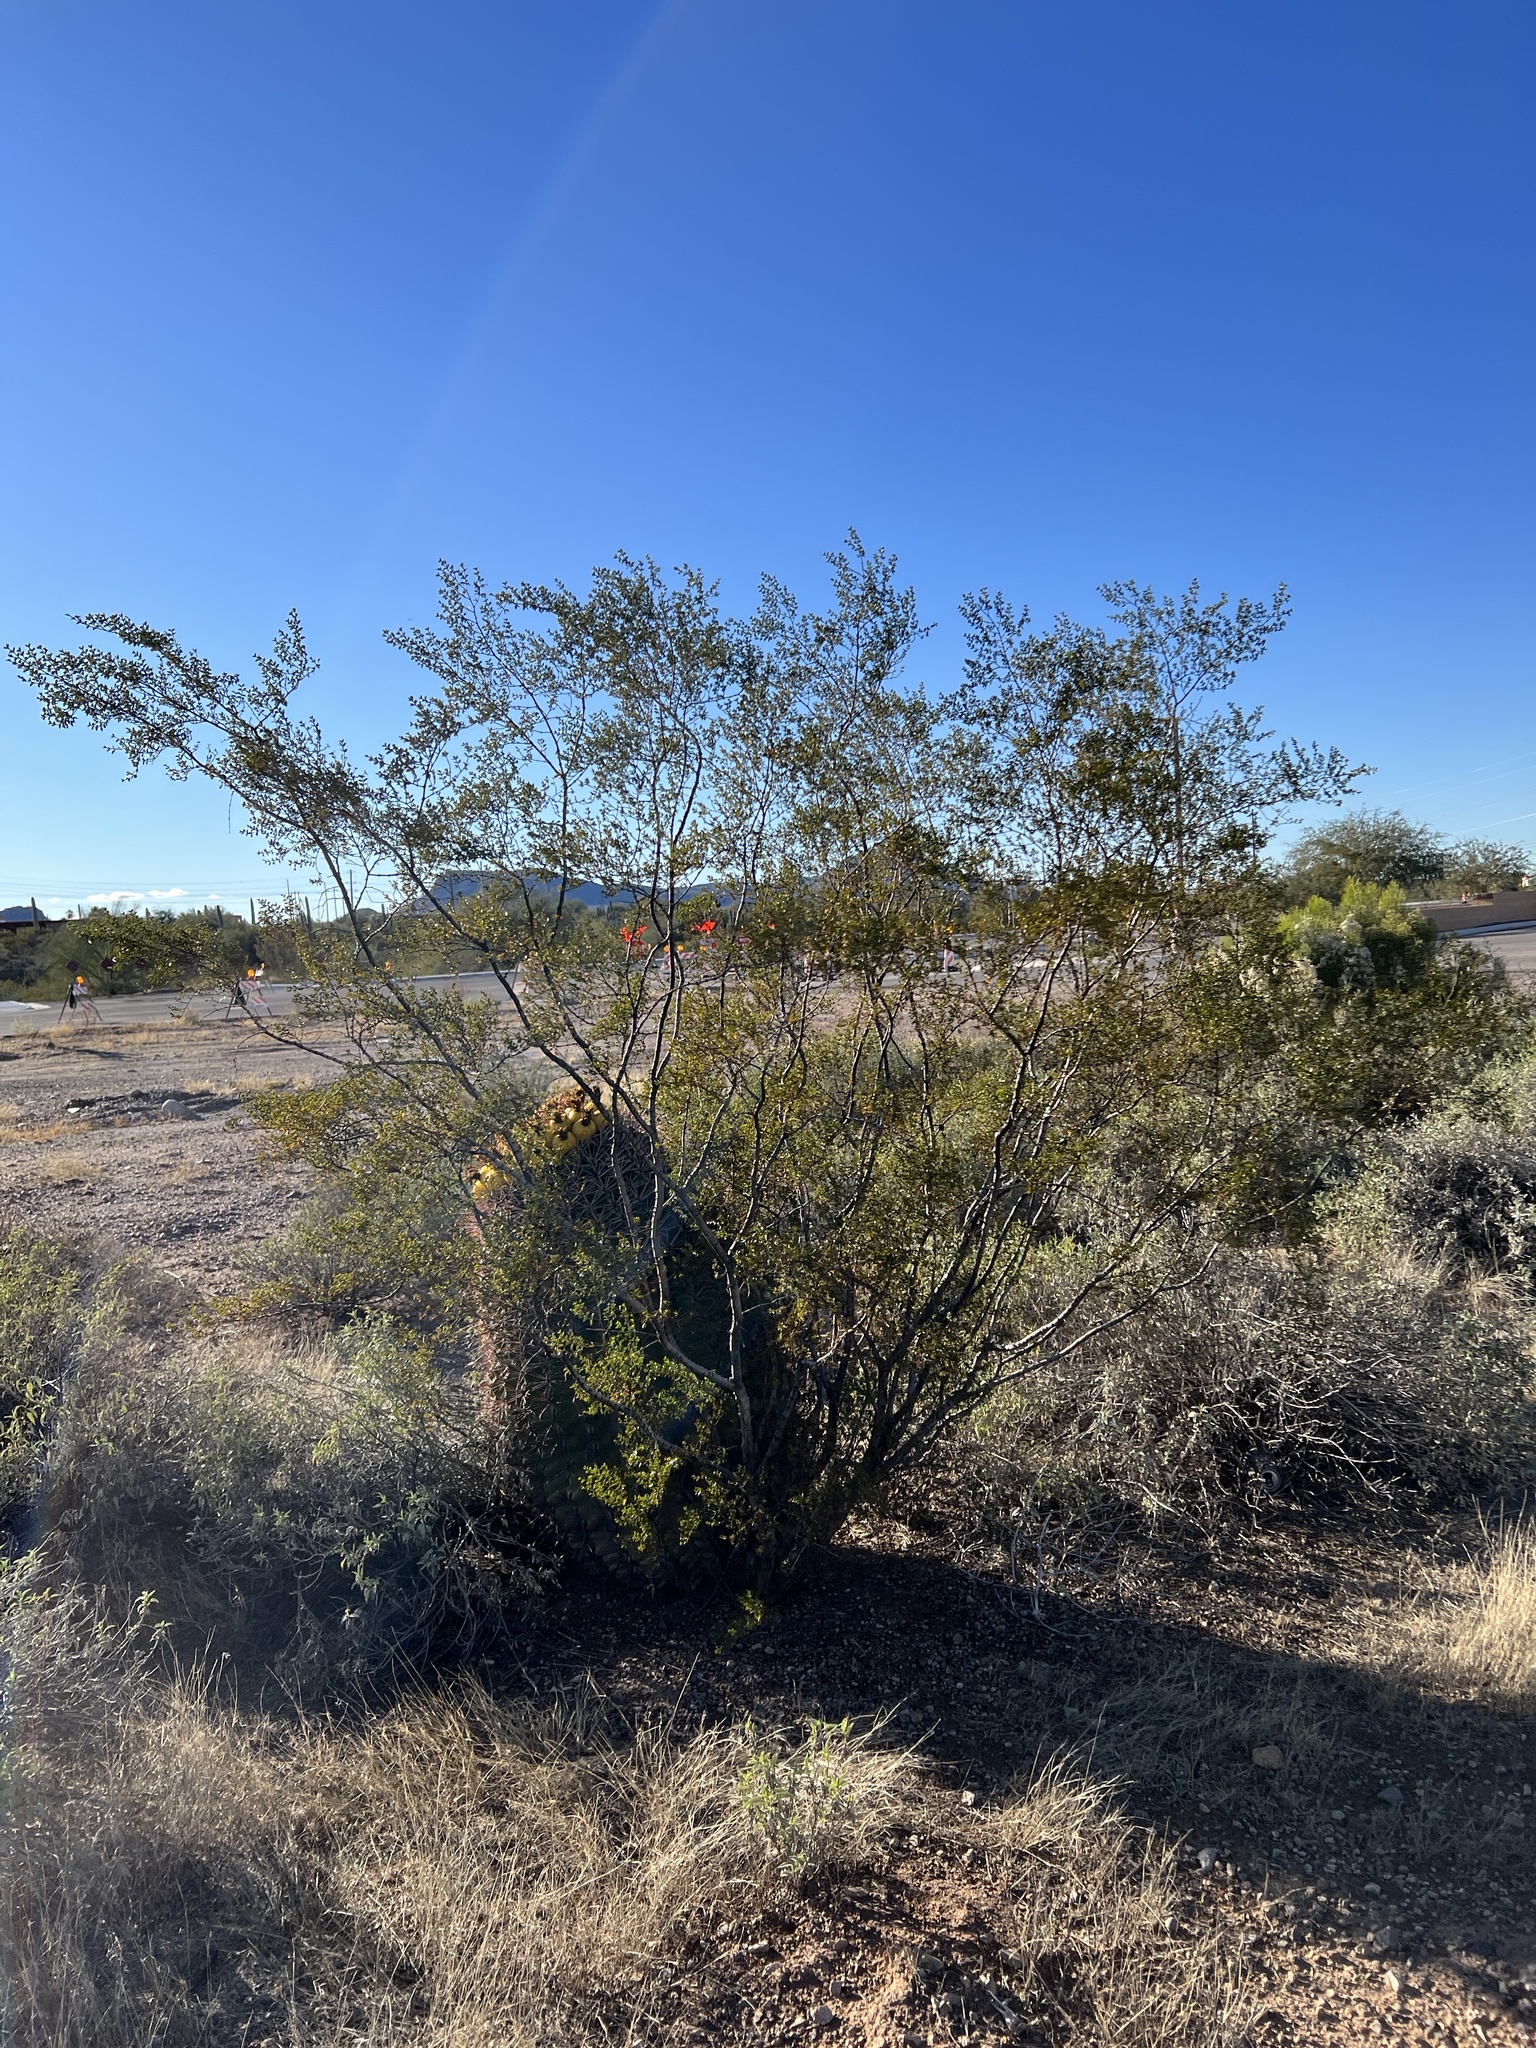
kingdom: Plantae
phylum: Tracheophyta
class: Magnoliopsida
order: Zygophyllales
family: Zygophyllaceae
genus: Larrea
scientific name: Larrea tridentata
